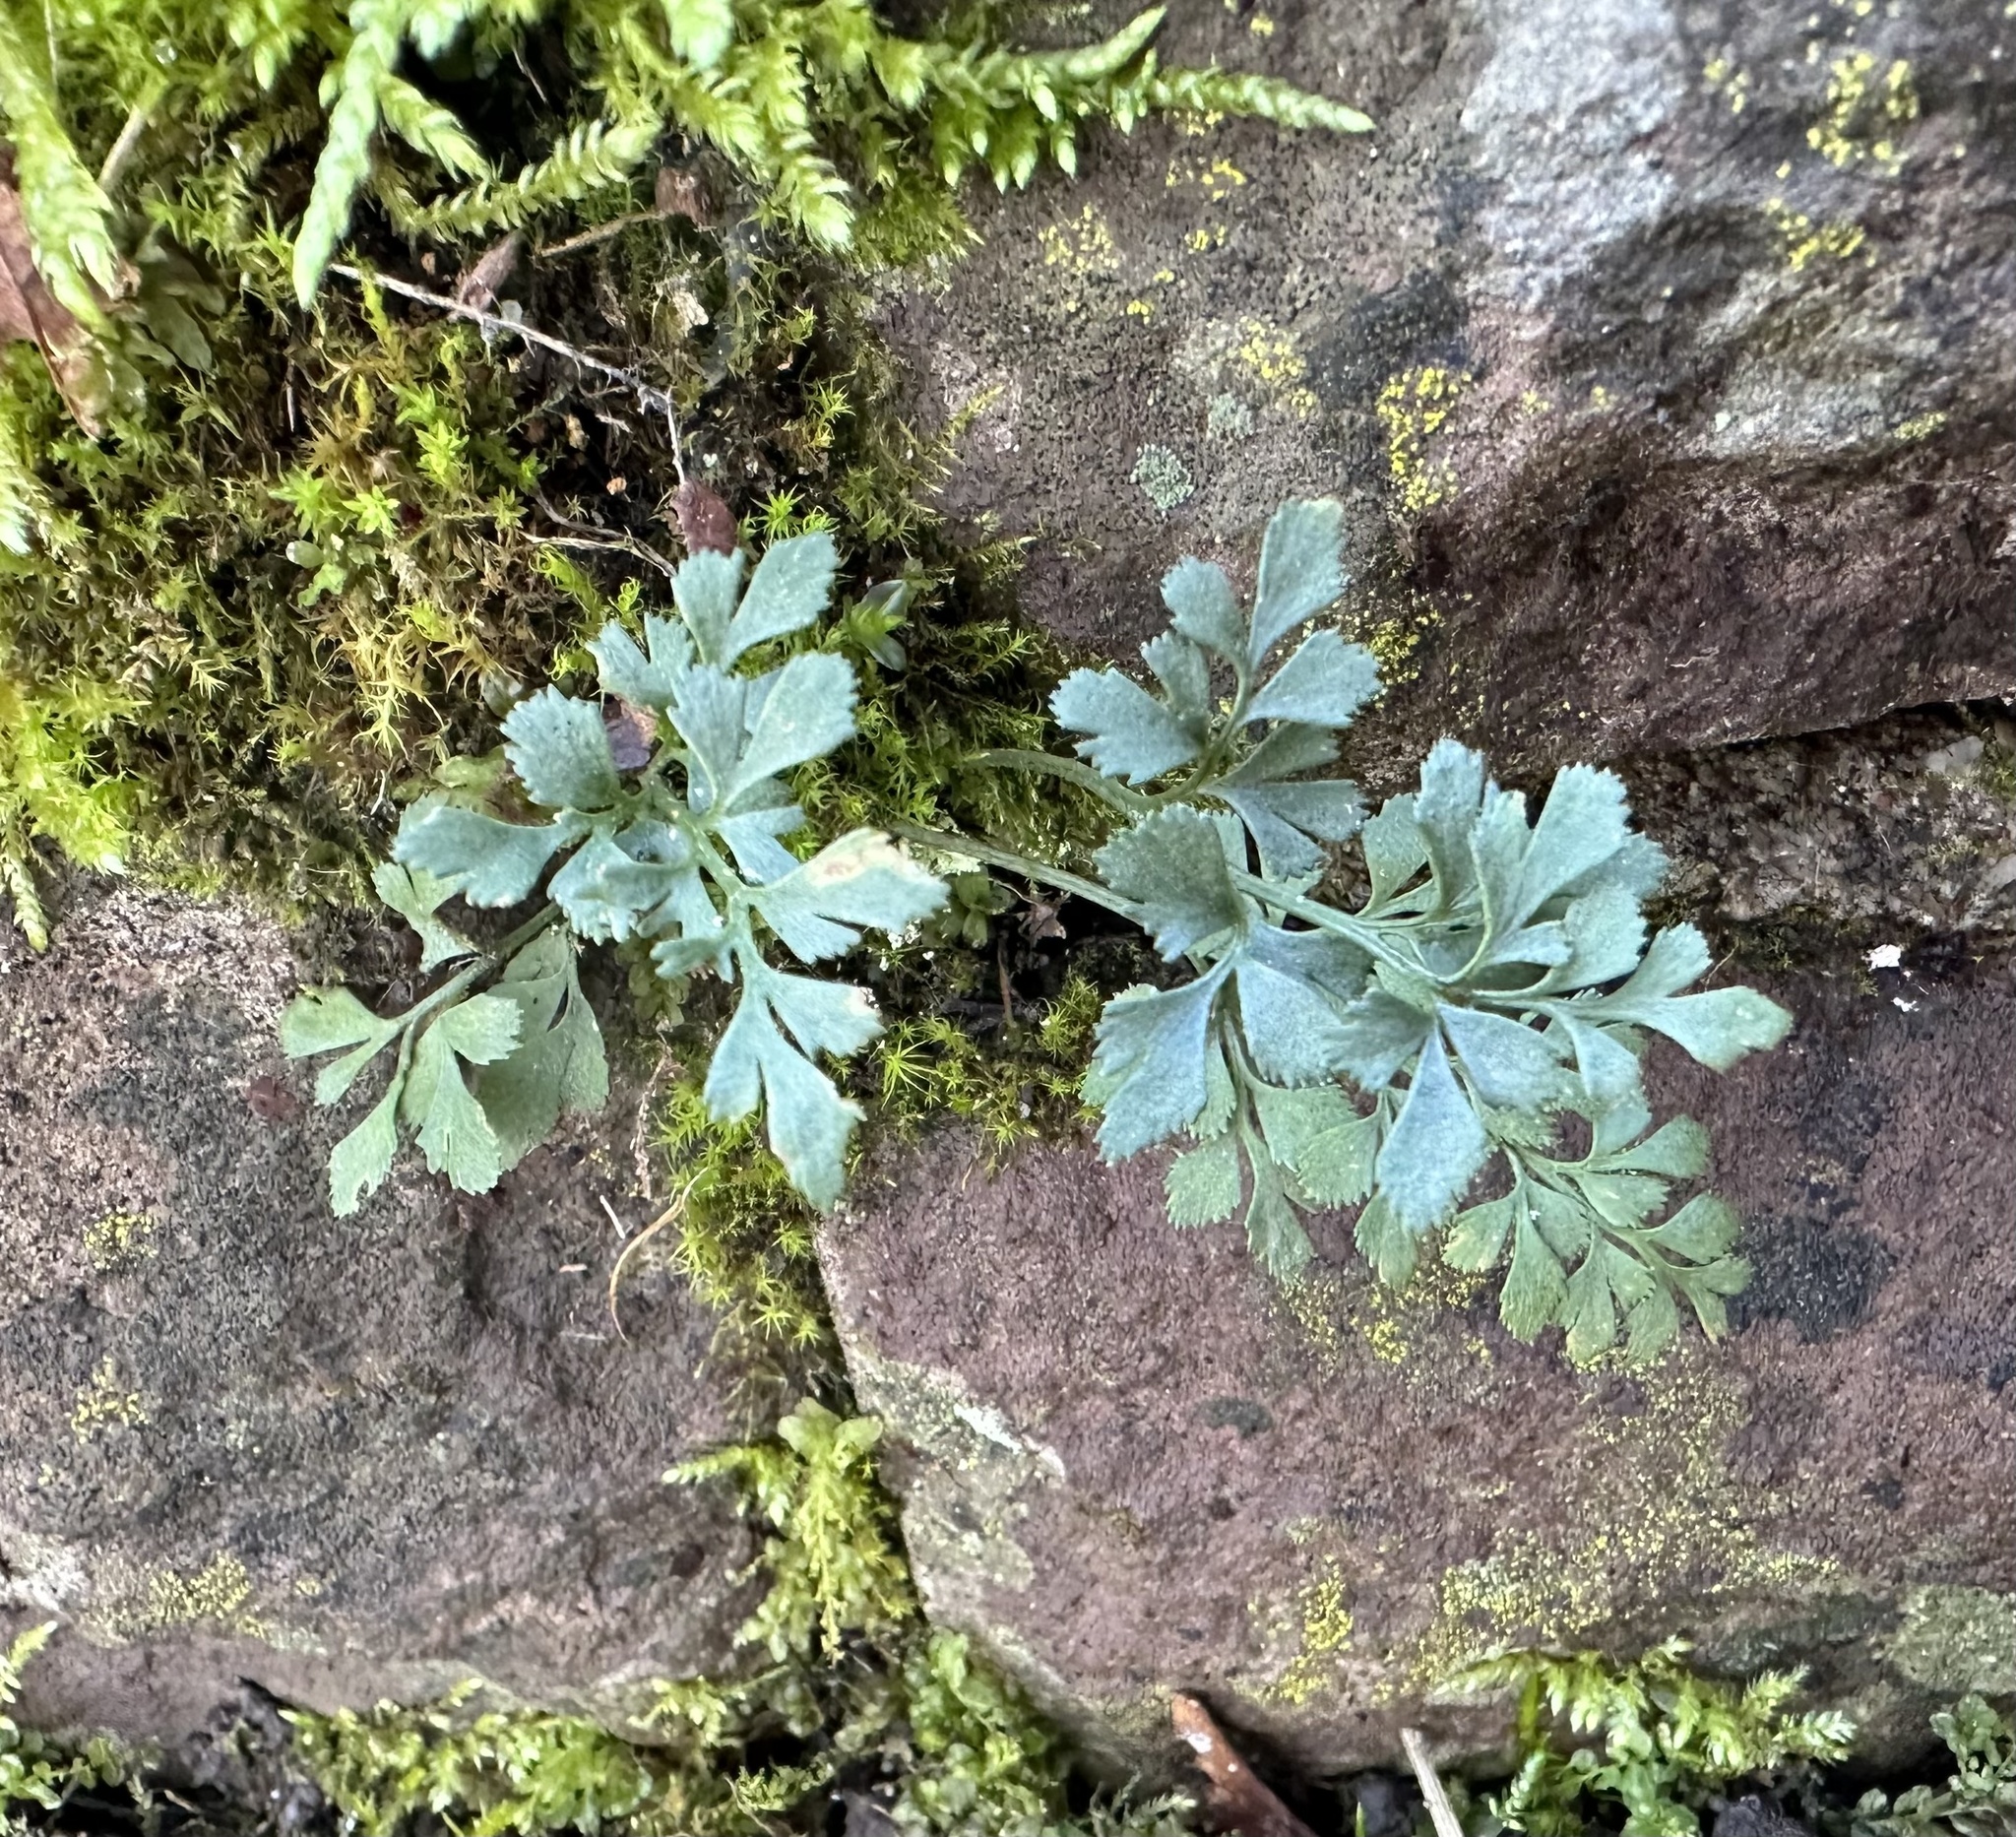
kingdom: Plantae
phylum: Tracheophyta
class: Polypodiopsida
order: Polypodiales
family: Aspleniaceae
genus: Asplenium
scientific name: Asplenium ruta-muraria
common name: Wall-rue
